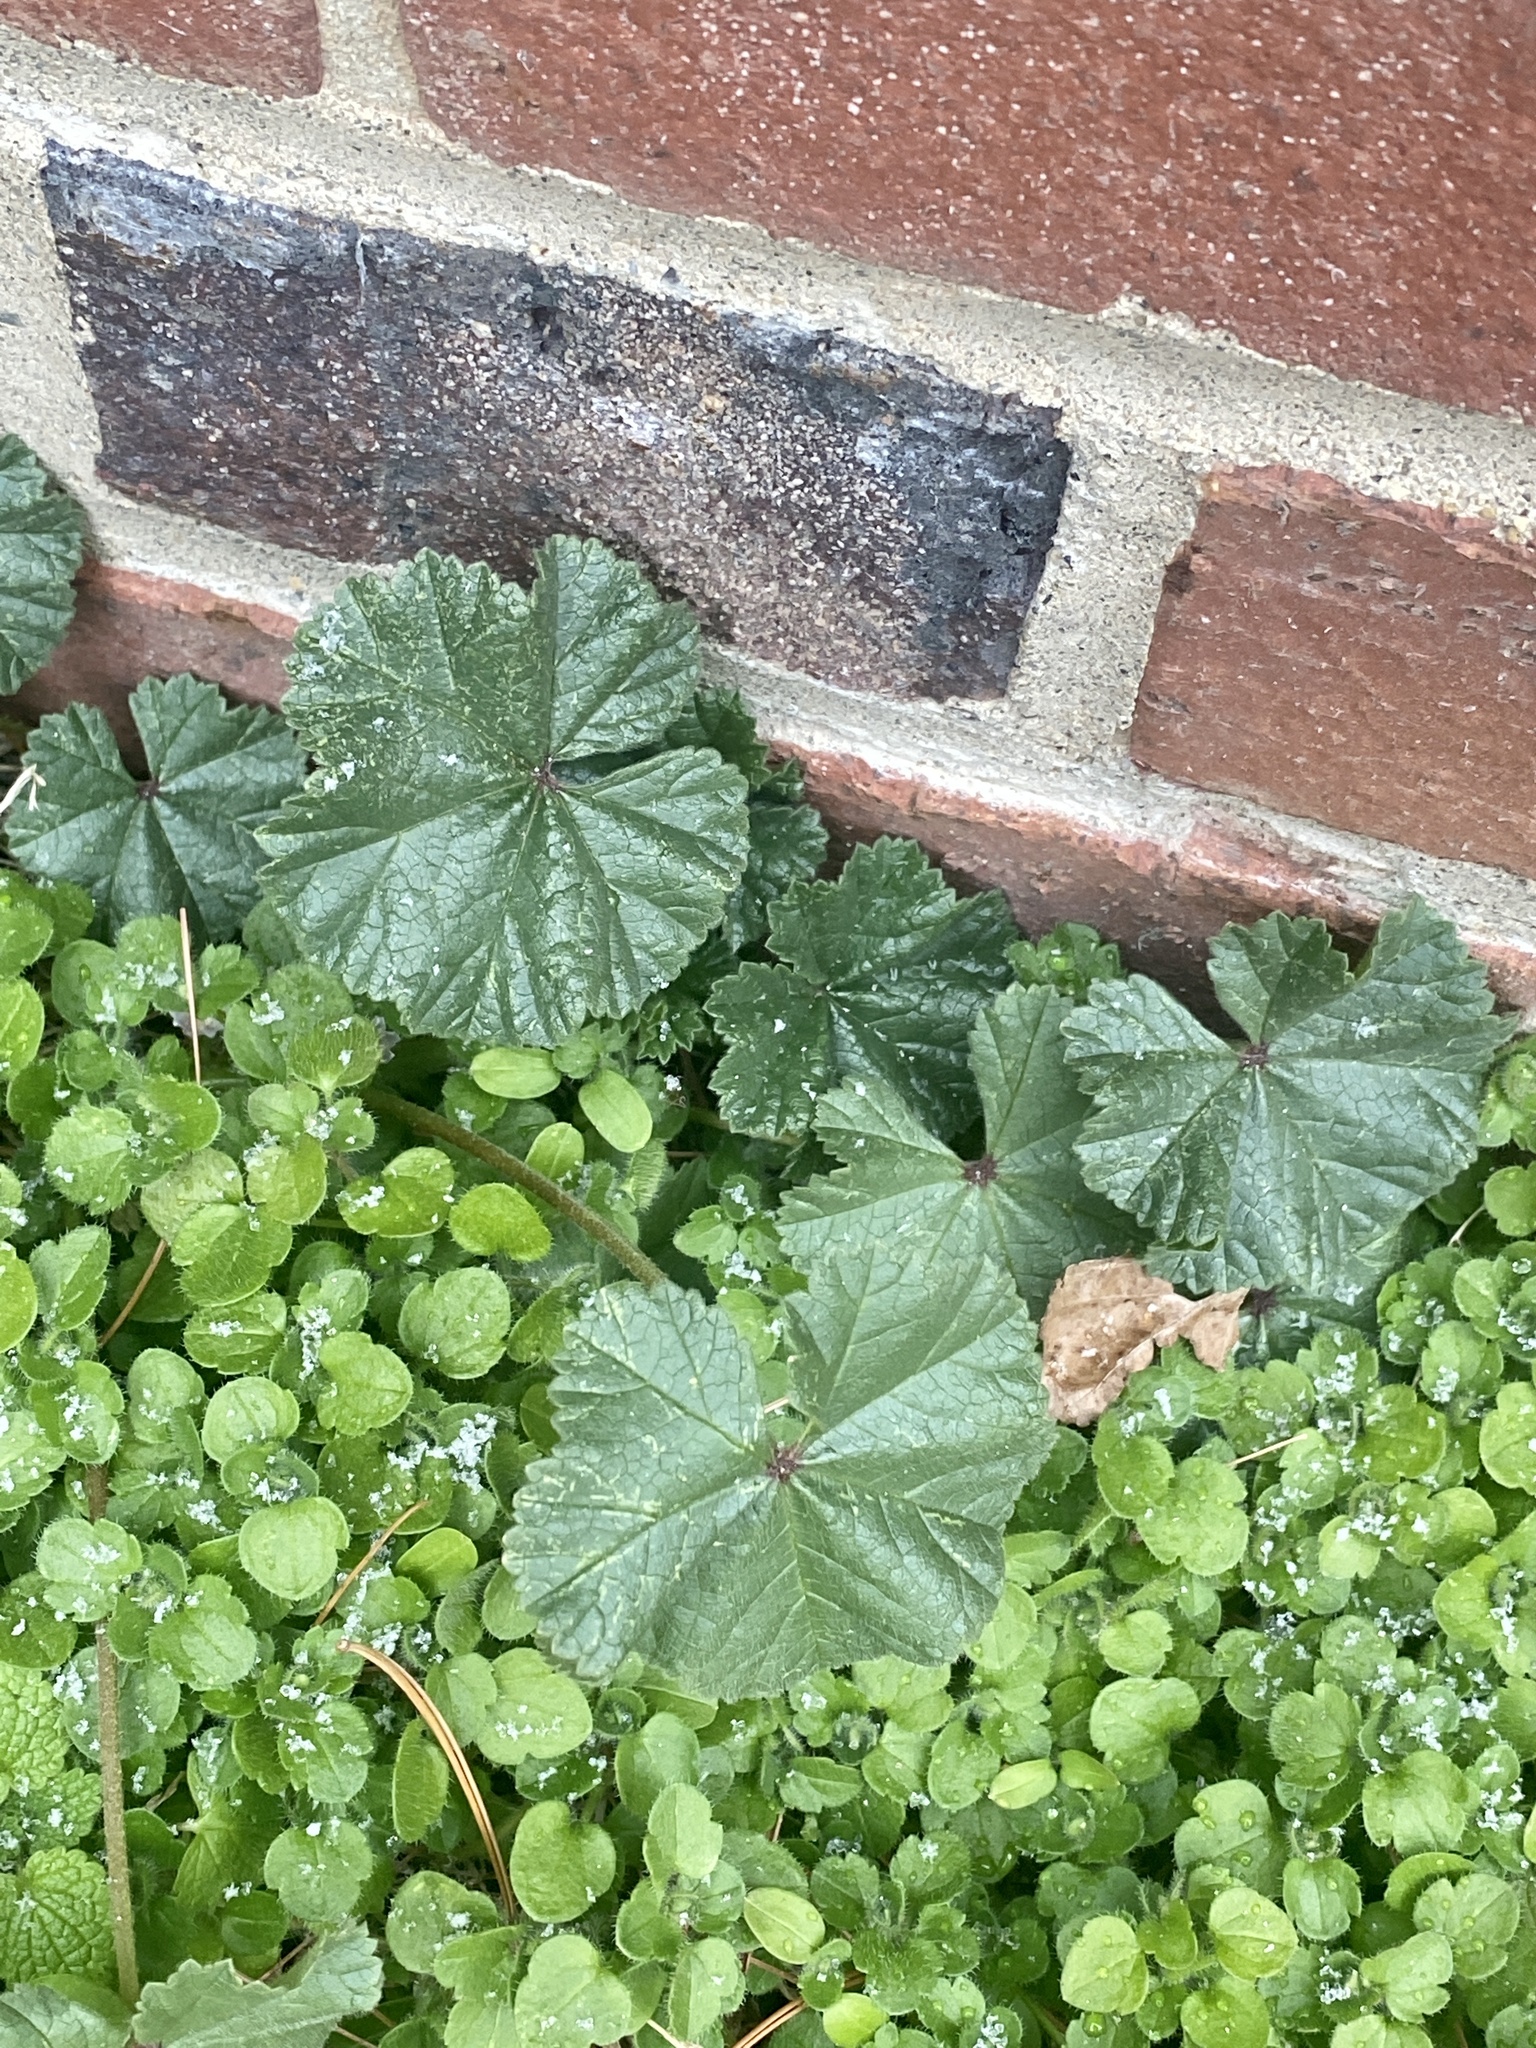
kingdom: Plantae
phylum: Tracheophyta
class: Magnoliopsida
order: Malvales
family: Malvaceae
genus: Malva
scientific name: Malva neglecta
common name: Common mallow
